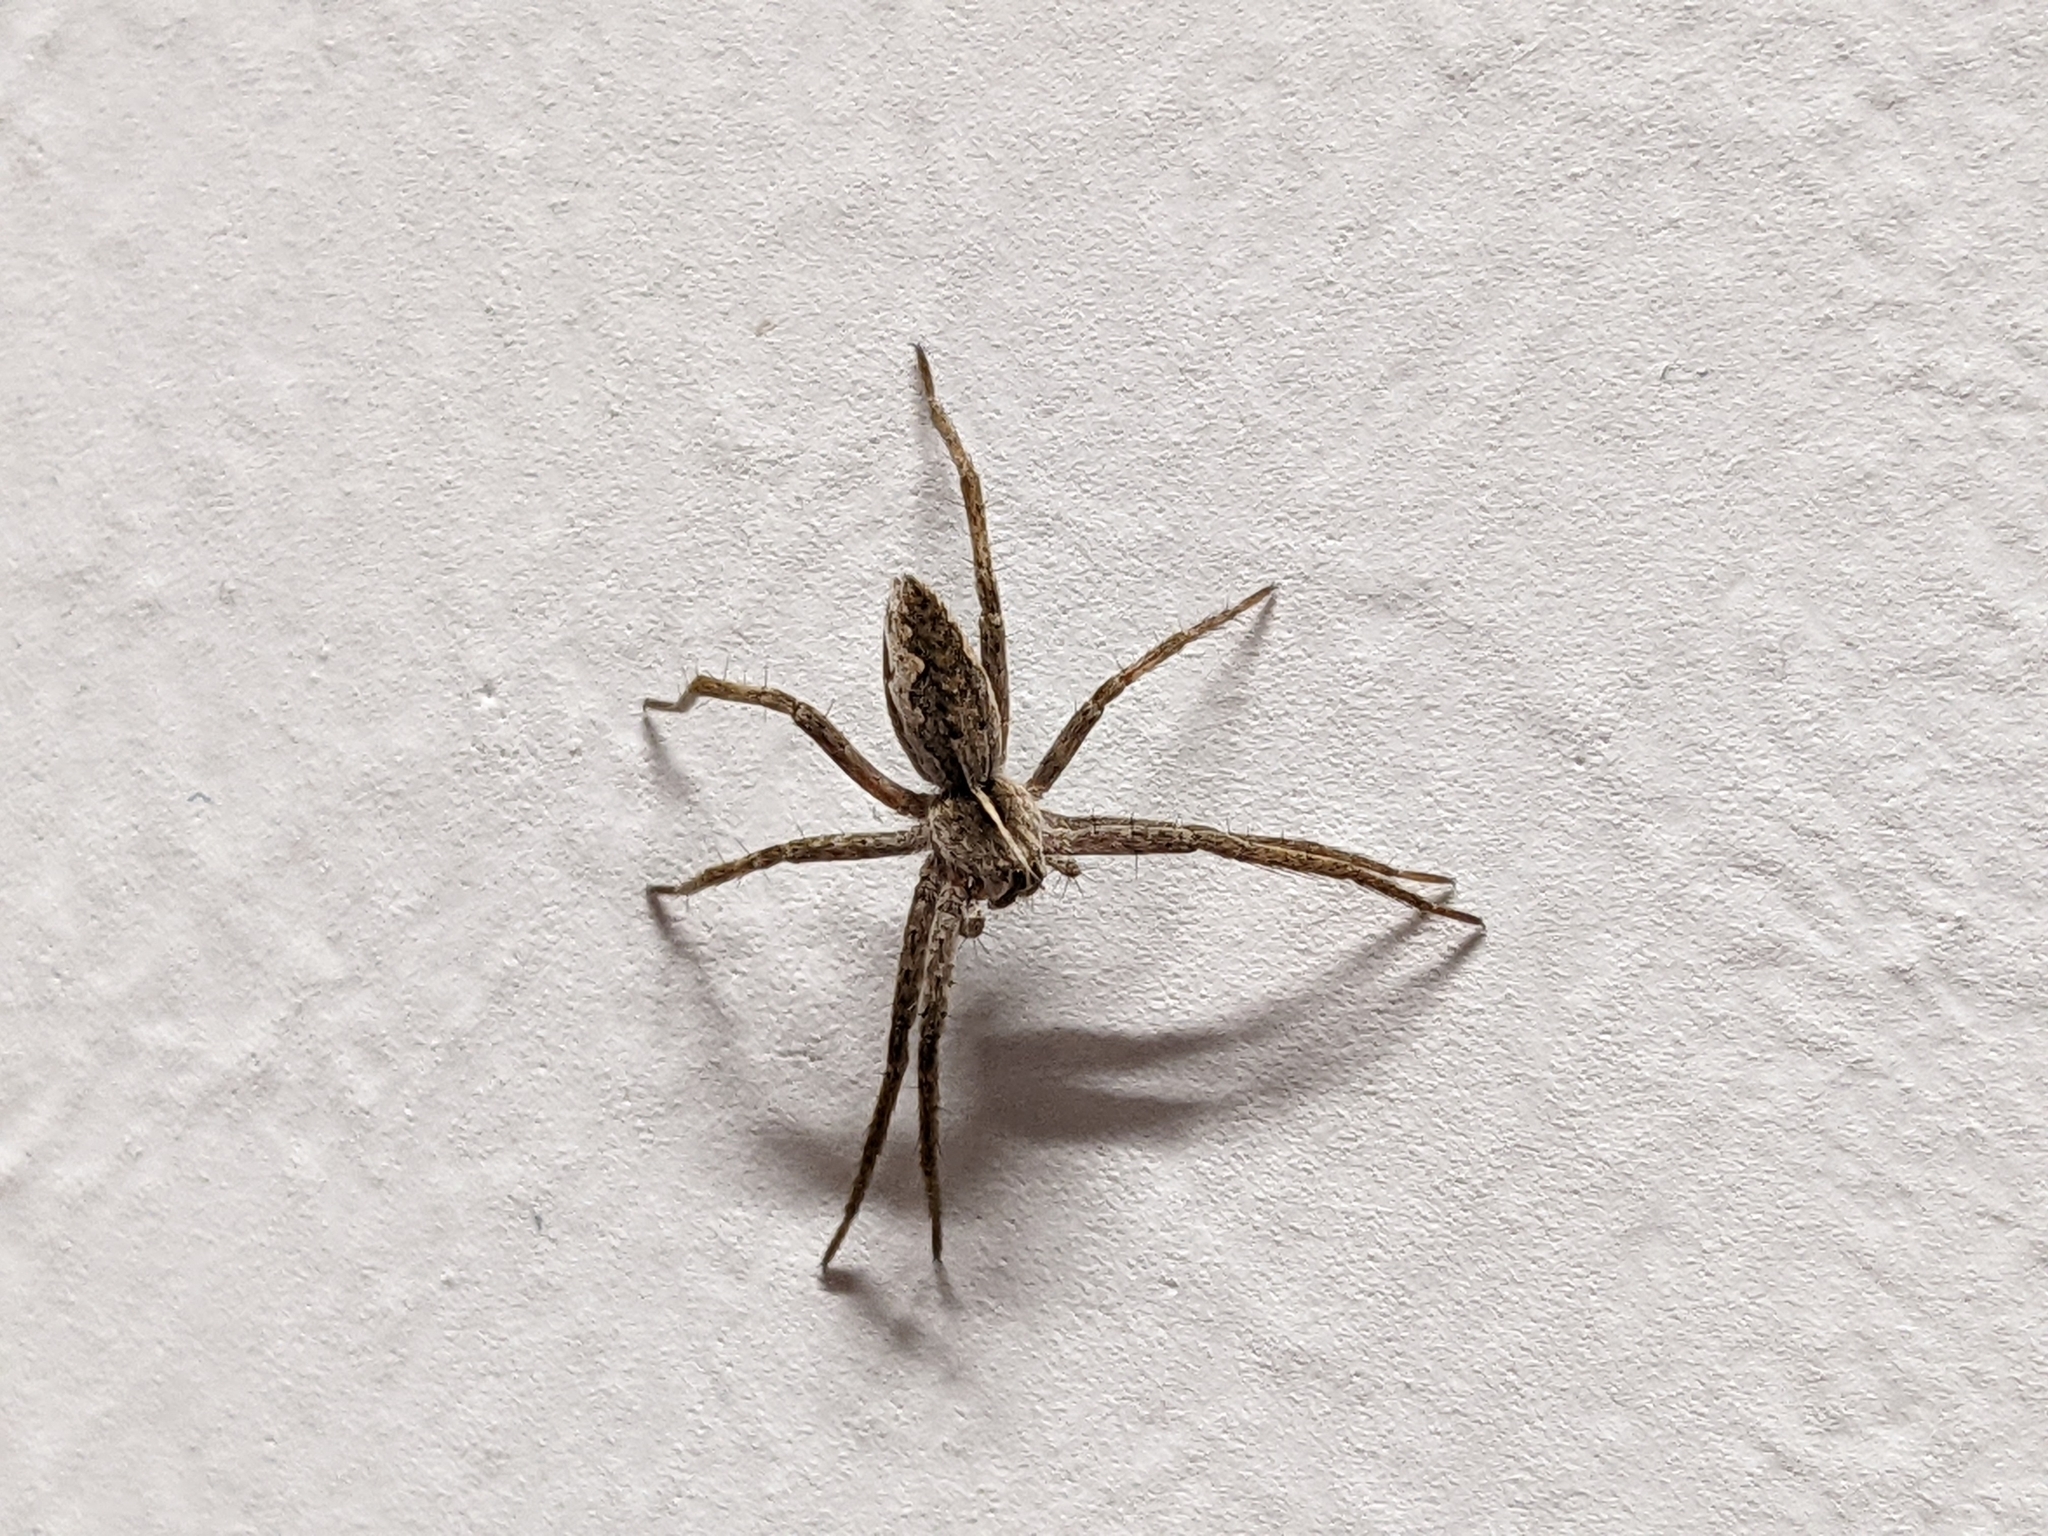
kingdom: Animalia
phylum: Arthropoda
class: Arachnida
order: Araneae
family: Pisauridae
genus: Pisaura
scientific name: Pisaura mirabilis
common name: Tent spider
